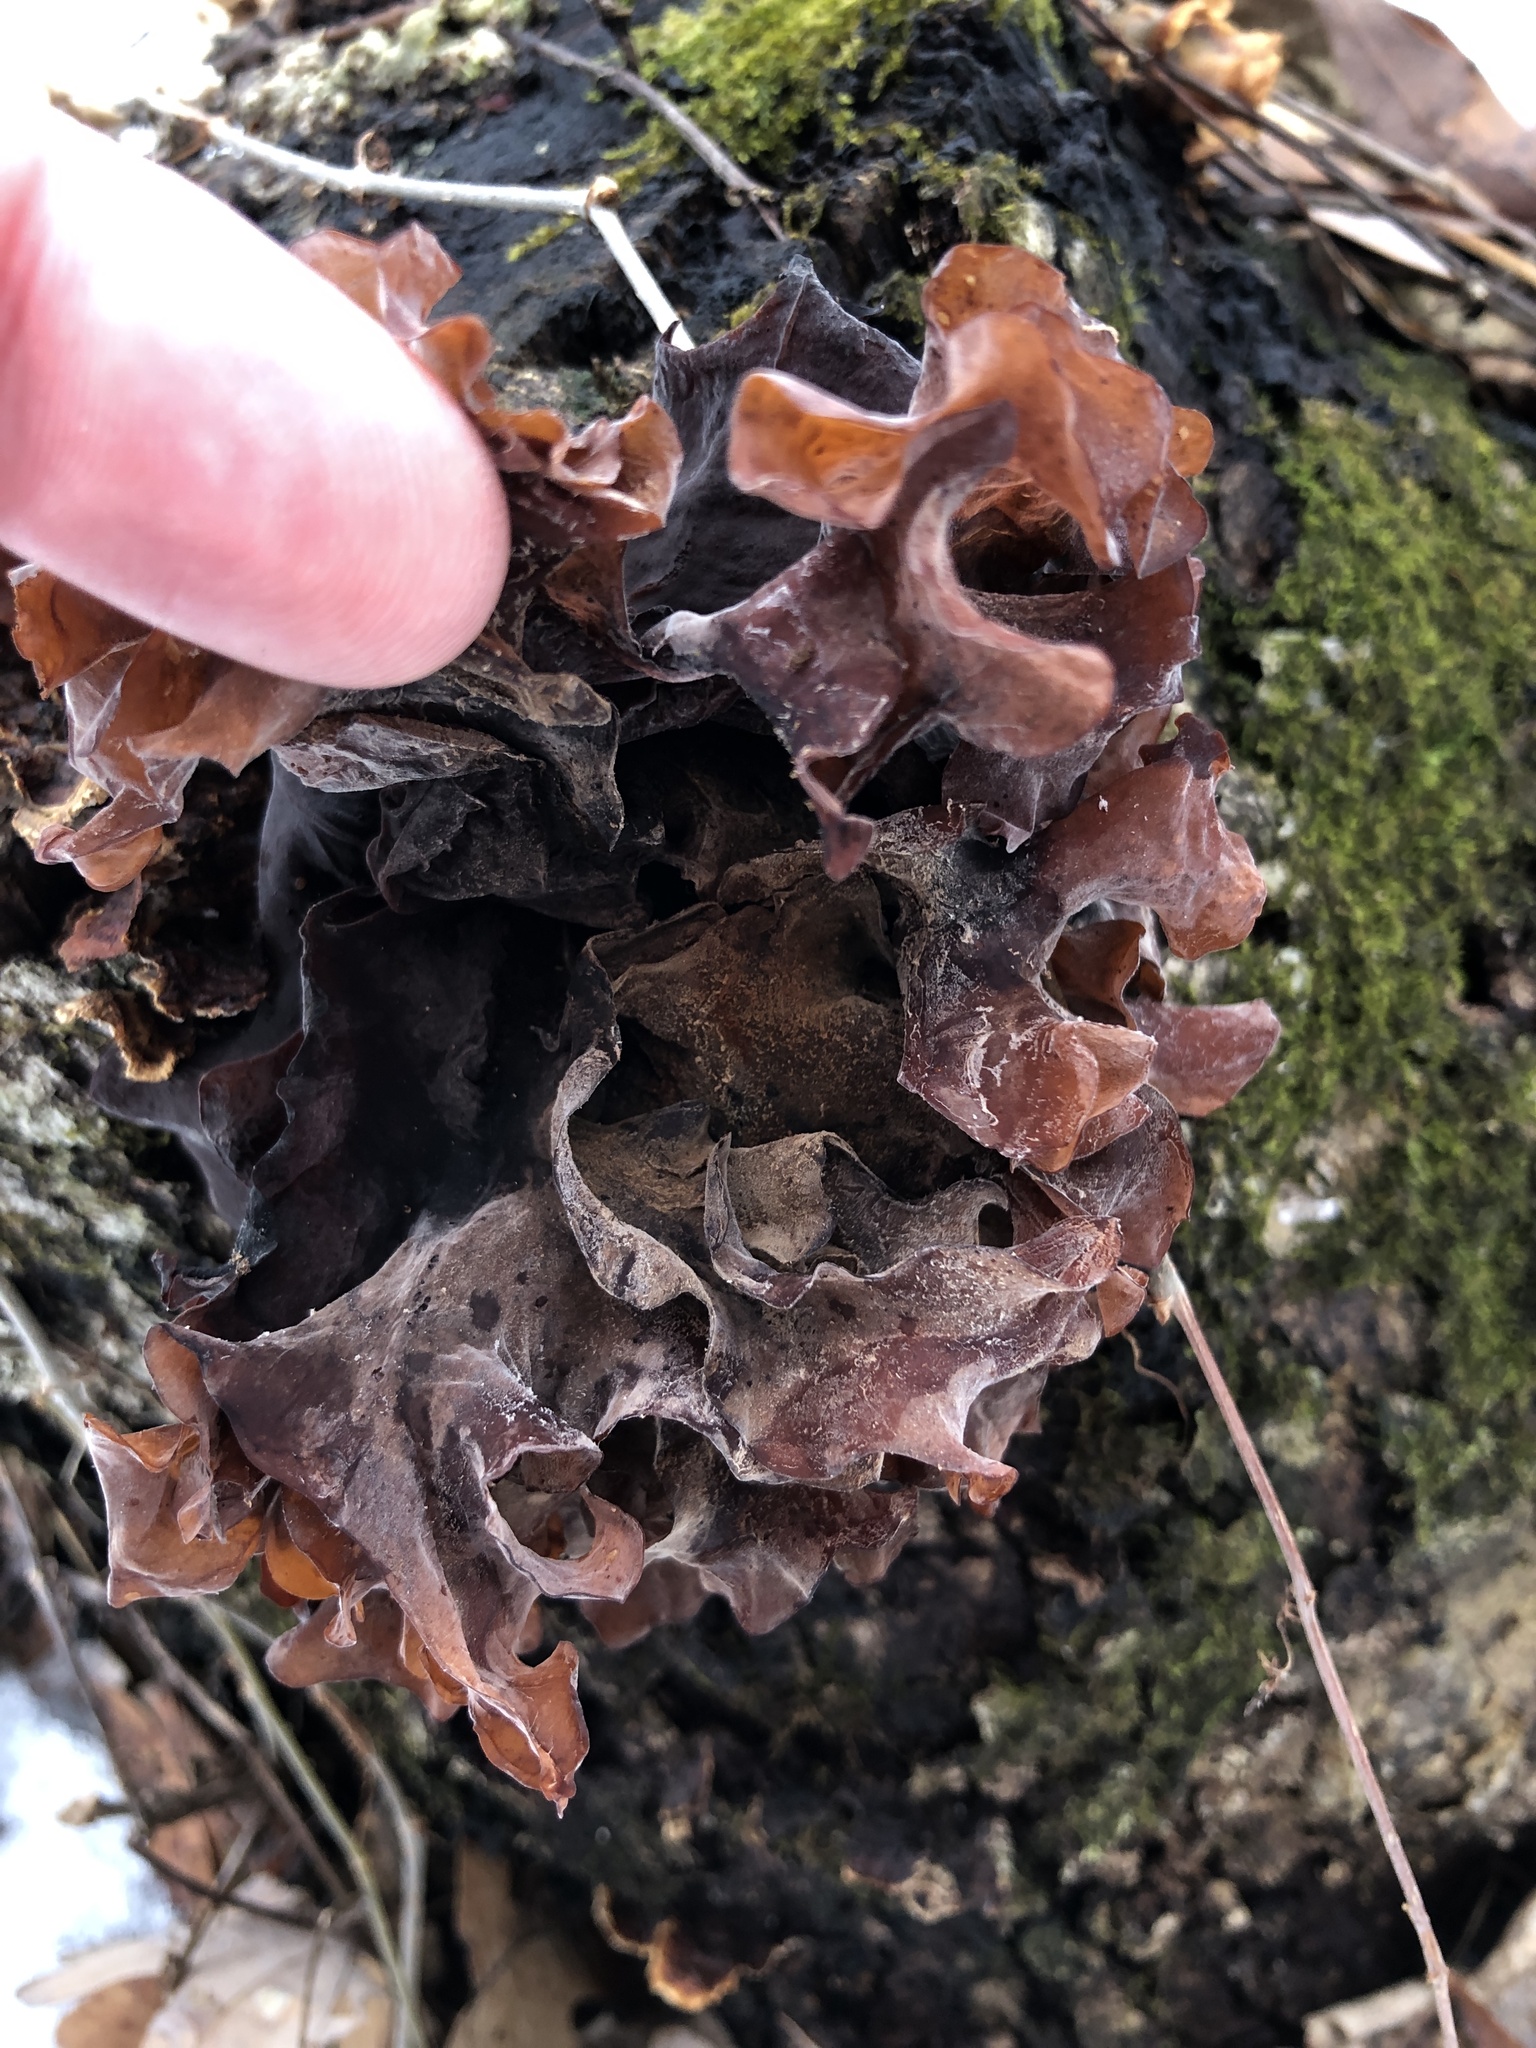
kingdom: Fungi
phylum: Basidiomycota
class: Tremellomycetes
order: Tremellales
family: Tremellaceae
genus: Phaeotremella
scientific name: Phaeotremella foliacea
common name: Leafy brain
